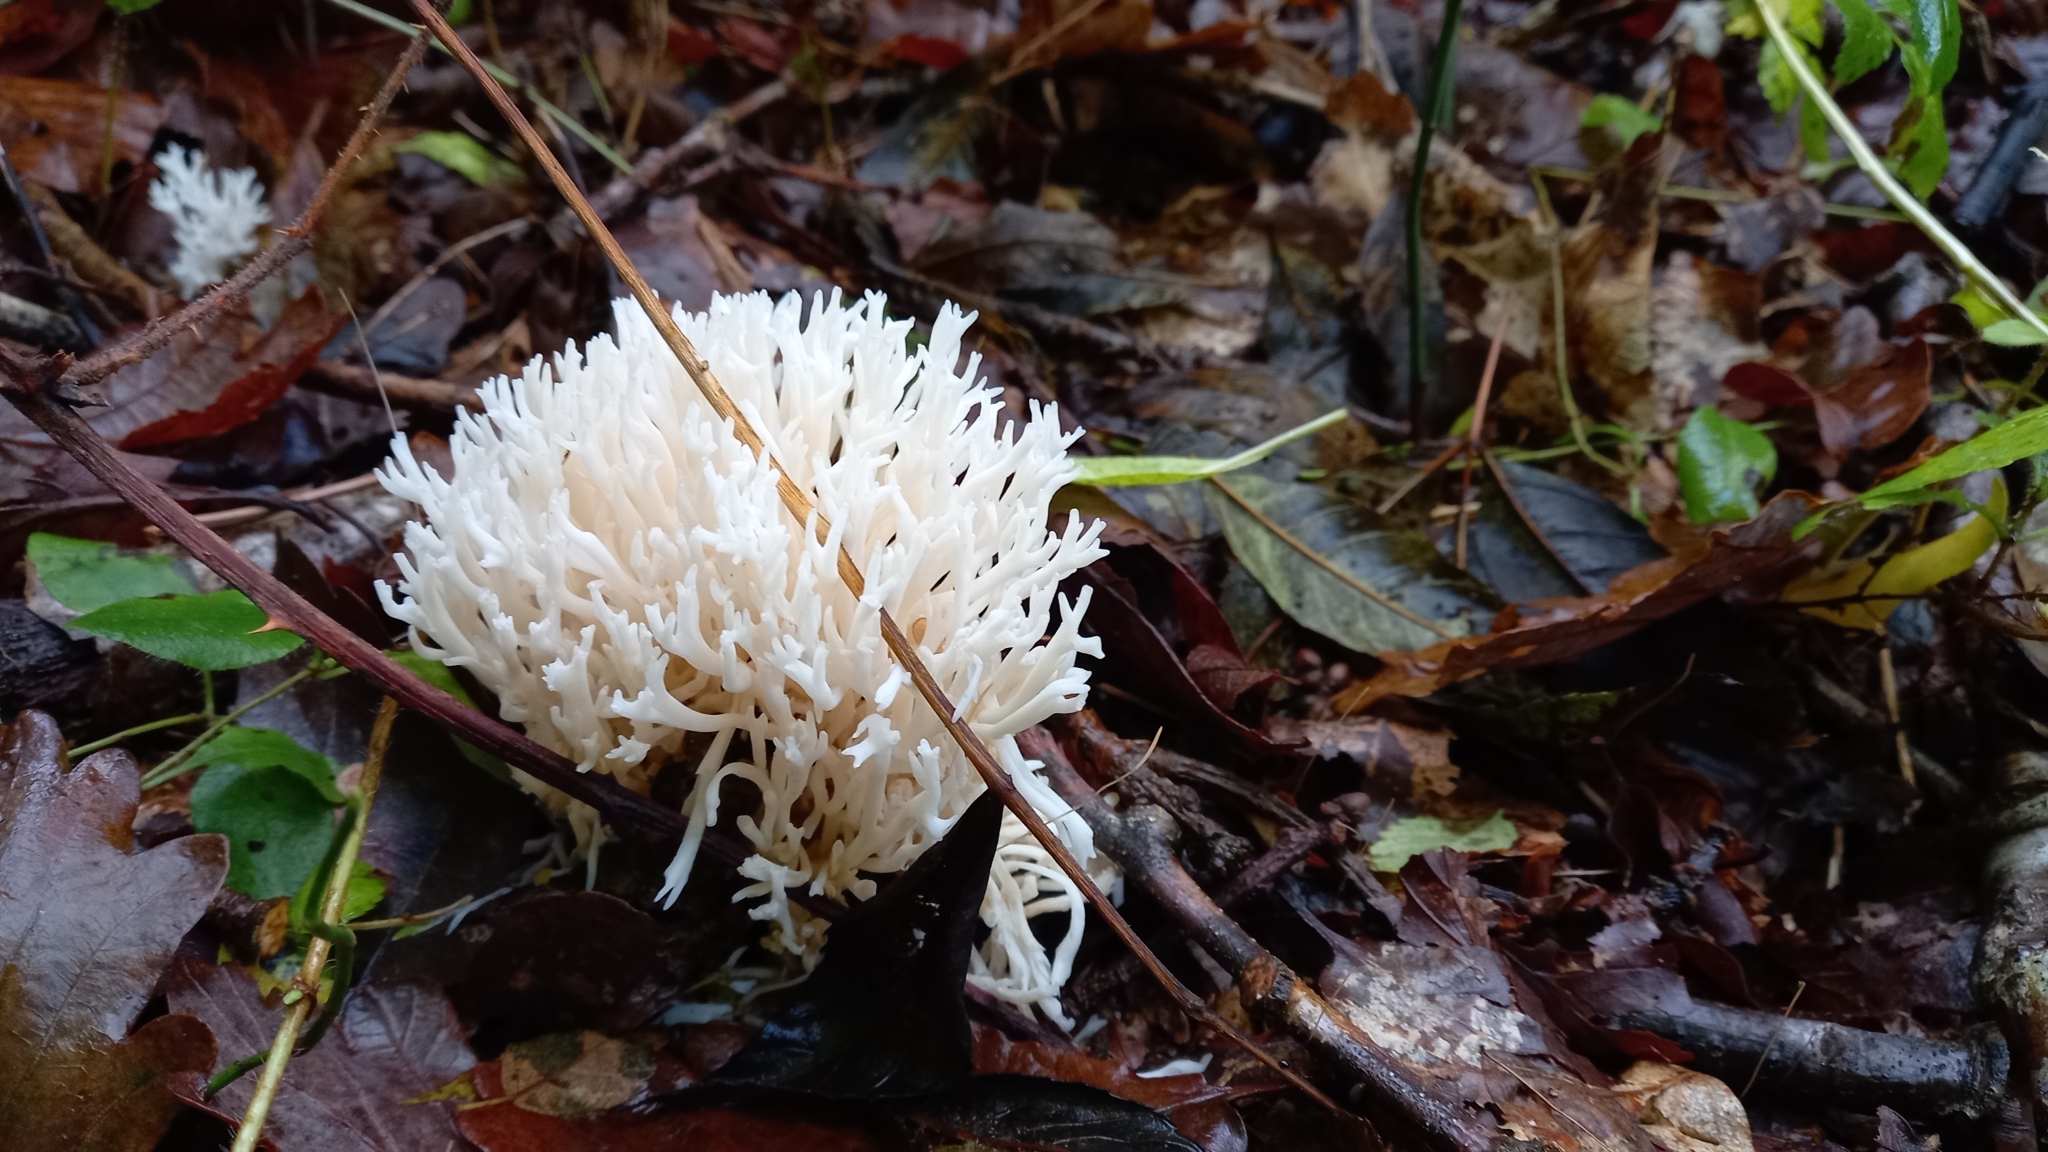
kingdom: Fungi
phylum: Basidiomycota
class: Agaricomycetes
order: Agaricales
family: Clavariaceae
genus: Ramariopsis
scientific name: Ramariopsis kunzei
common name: Ivory coral
